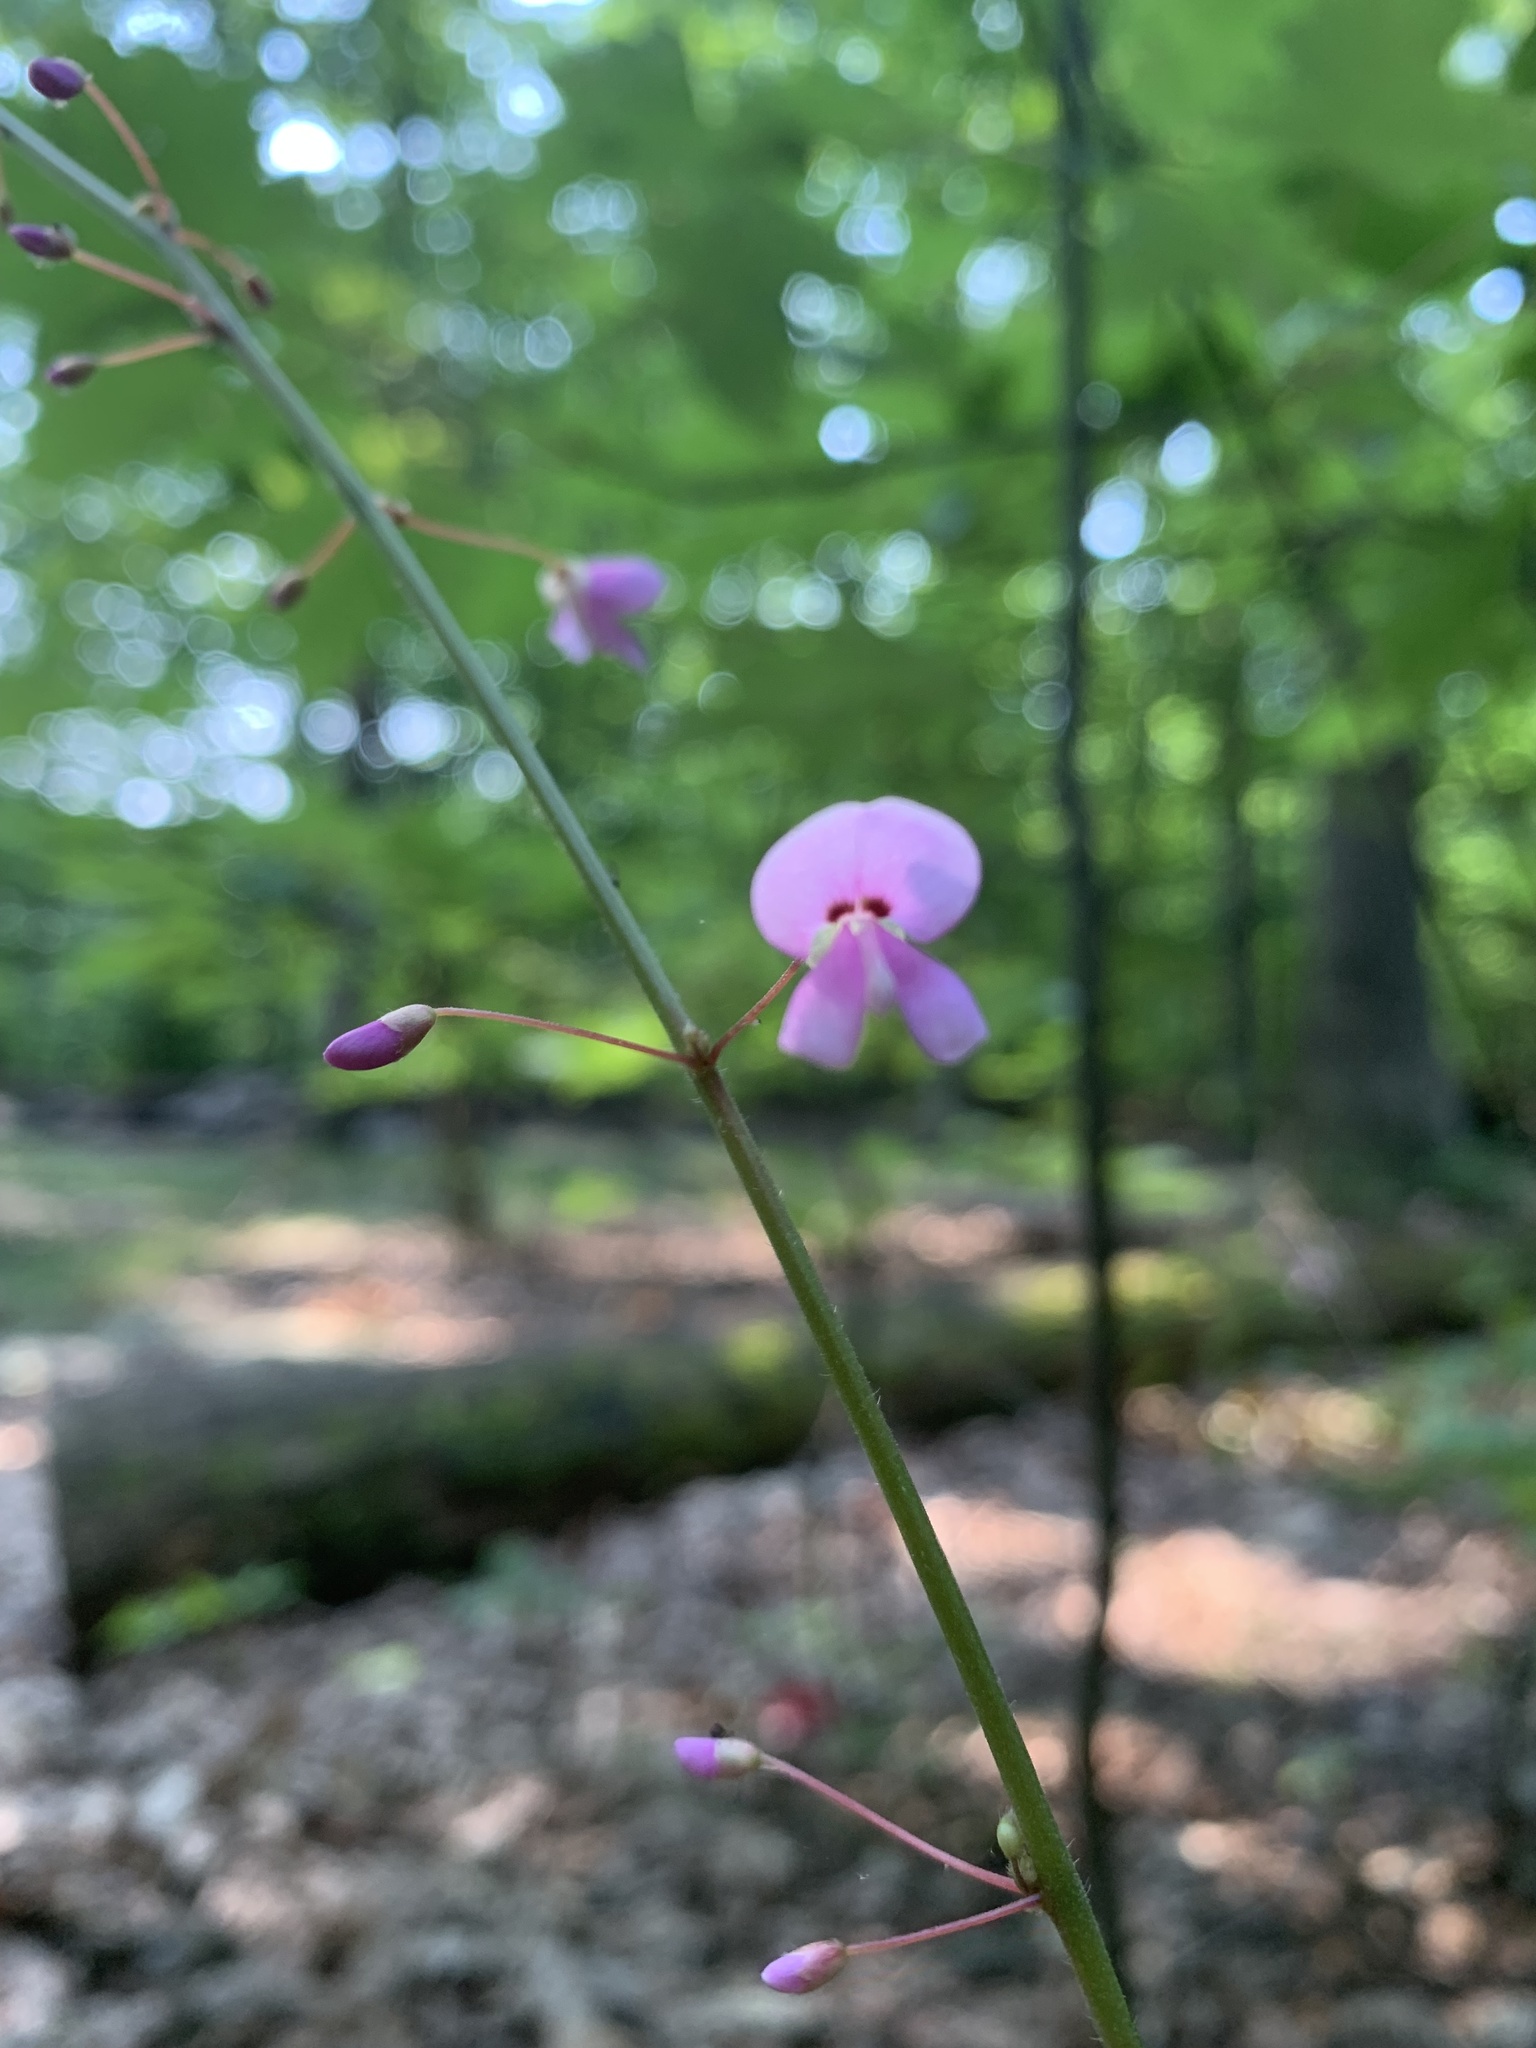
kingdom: Plantae
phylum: Tracheophyta
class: Magnoliopsida
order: Fabales
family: Fabaceae
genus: Hylodesmum
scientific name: Hylodesmum nudiflorum
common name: Bare-stemmed tick-trefoil
